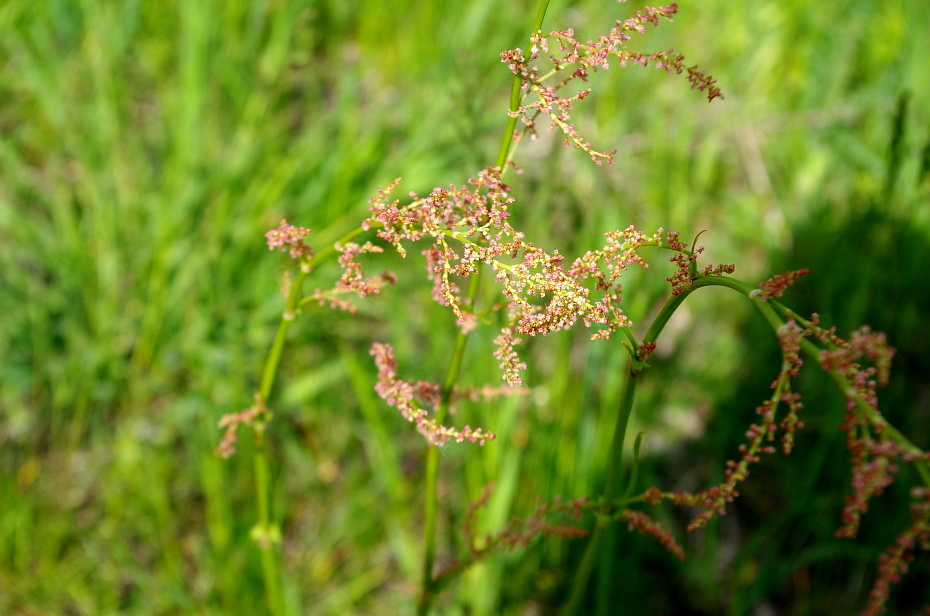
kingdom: Plantae
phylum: Tracheophyta
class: Magnoliopsida
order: Caryophyllales
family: Polygonaceae
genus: Rumex
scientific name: Rumex thyrsiflorus
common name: Garden sorrel
